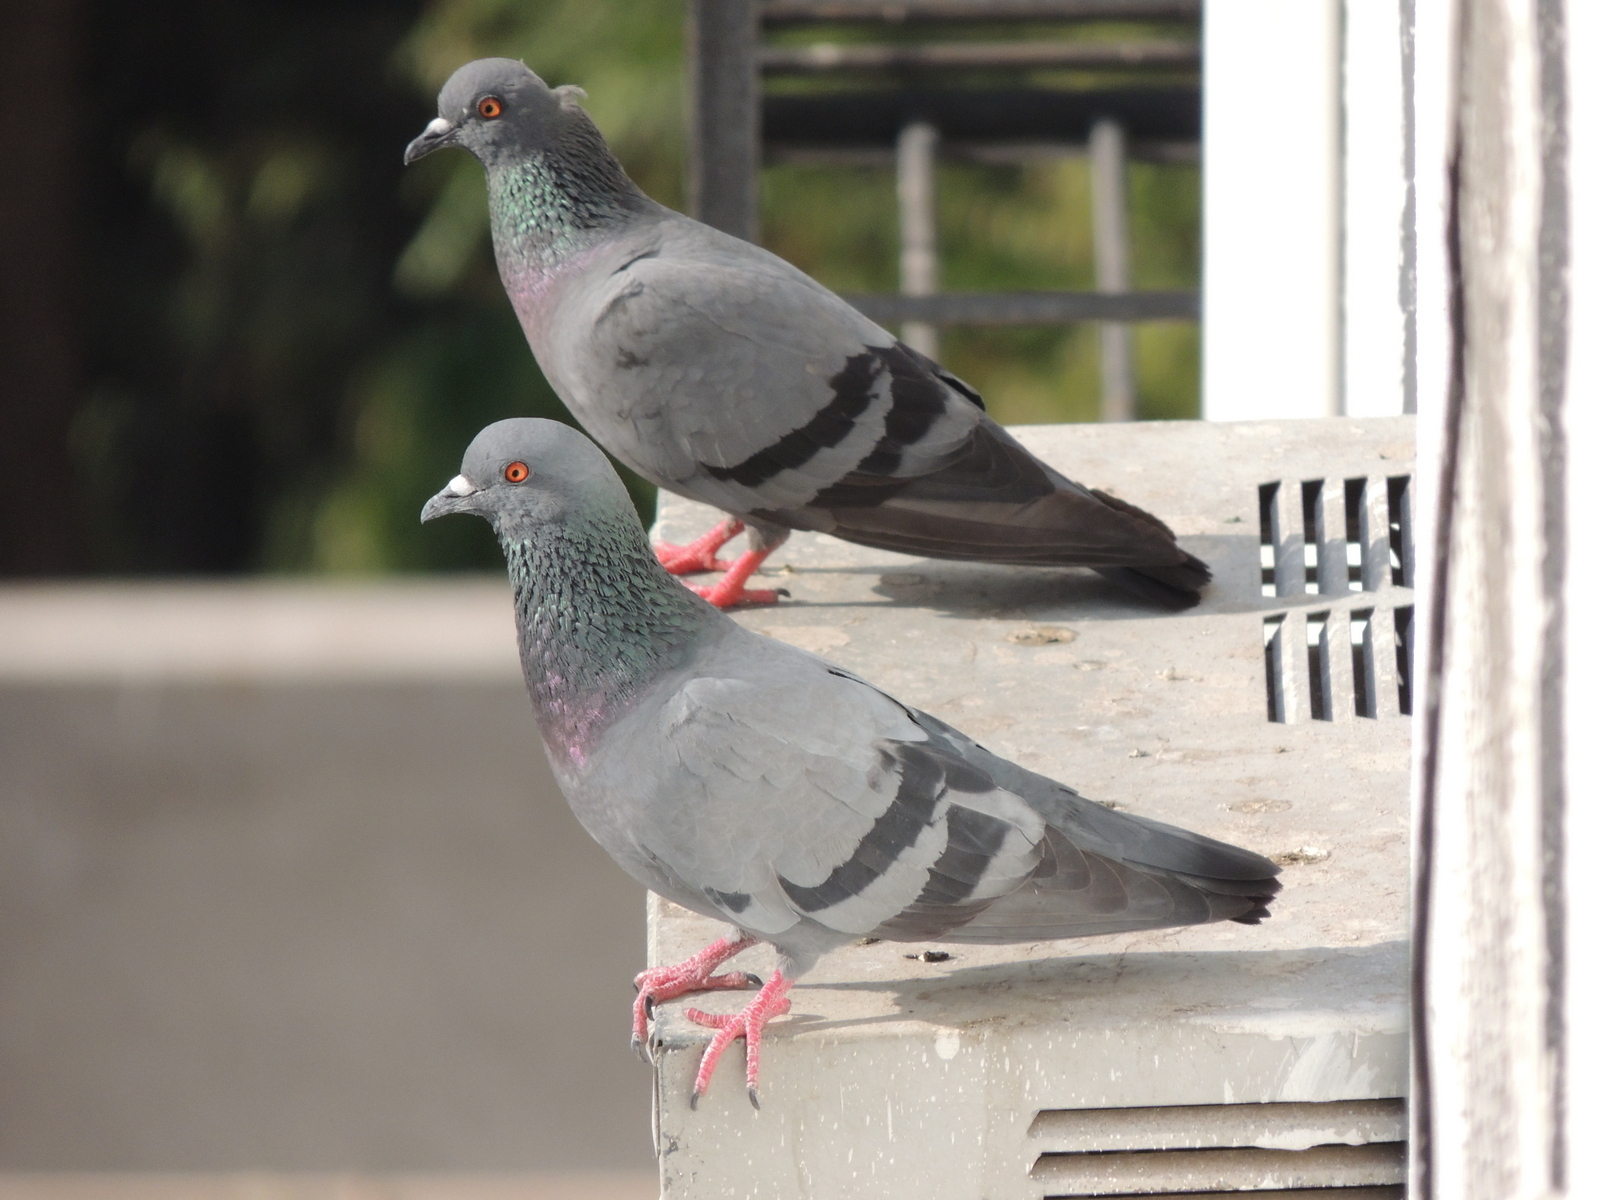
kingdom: Animalia
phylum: Chordata
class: Aves
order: Columbiformes
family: Columbidae
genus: Columba
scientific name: Columba livia
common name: Rock pigeon
